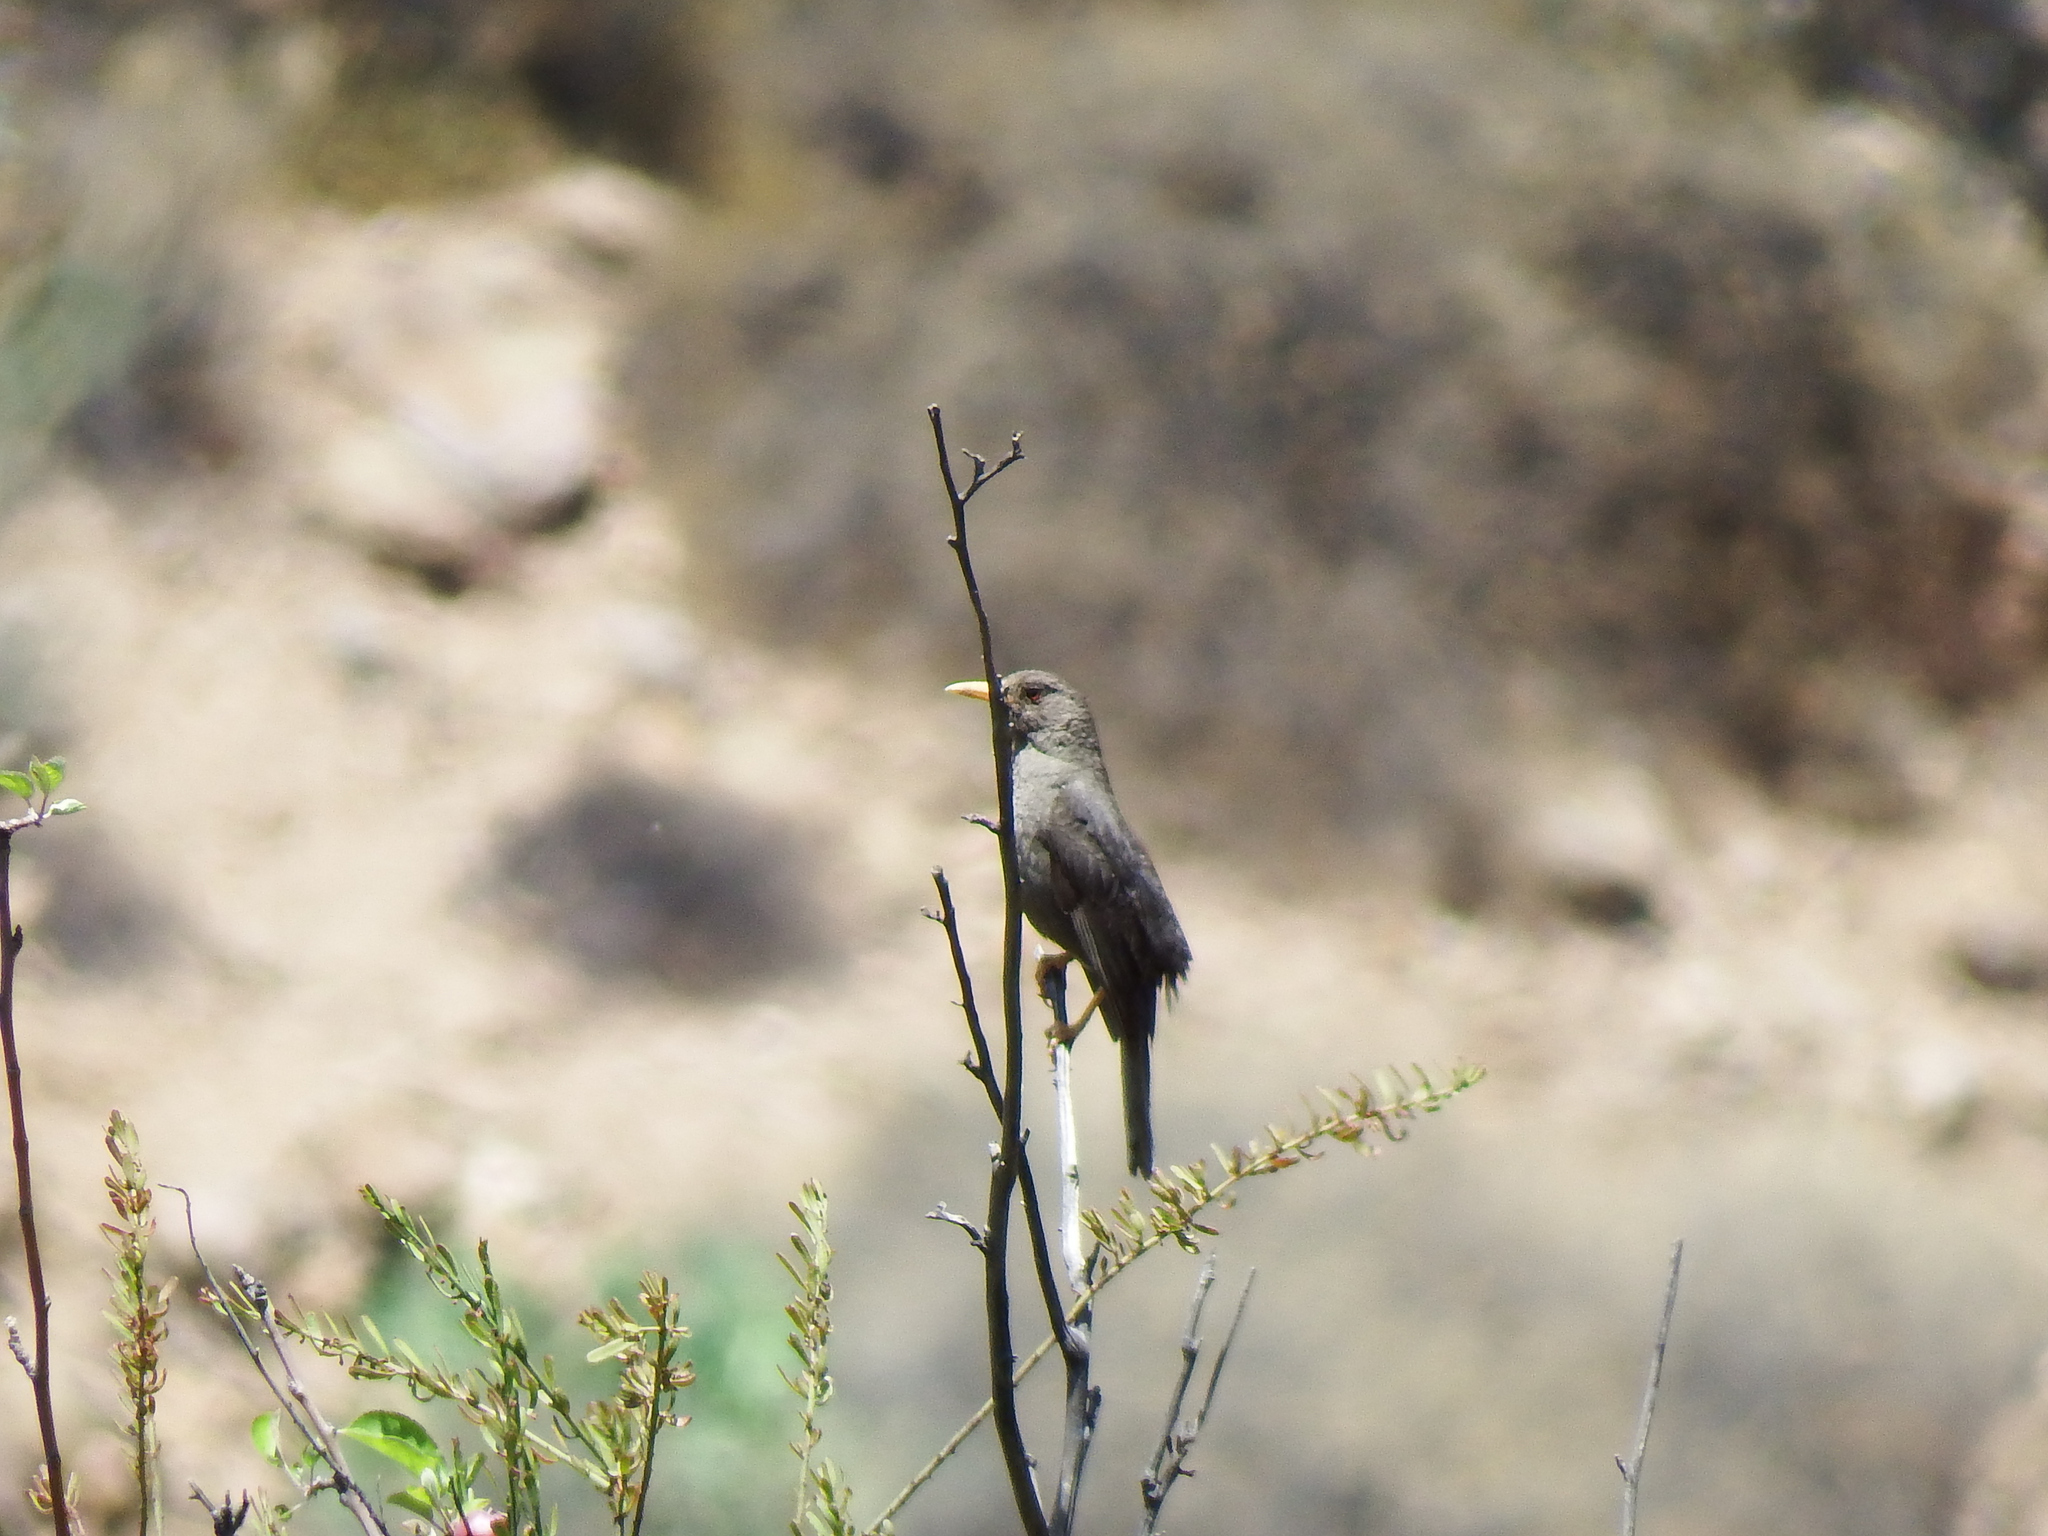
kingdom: Animalia
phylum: Chordata
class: Aves
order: Passeriformes
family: Turdidae
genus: Turdus
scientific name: Turdus chiguanco
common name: Chiguanco thrush
